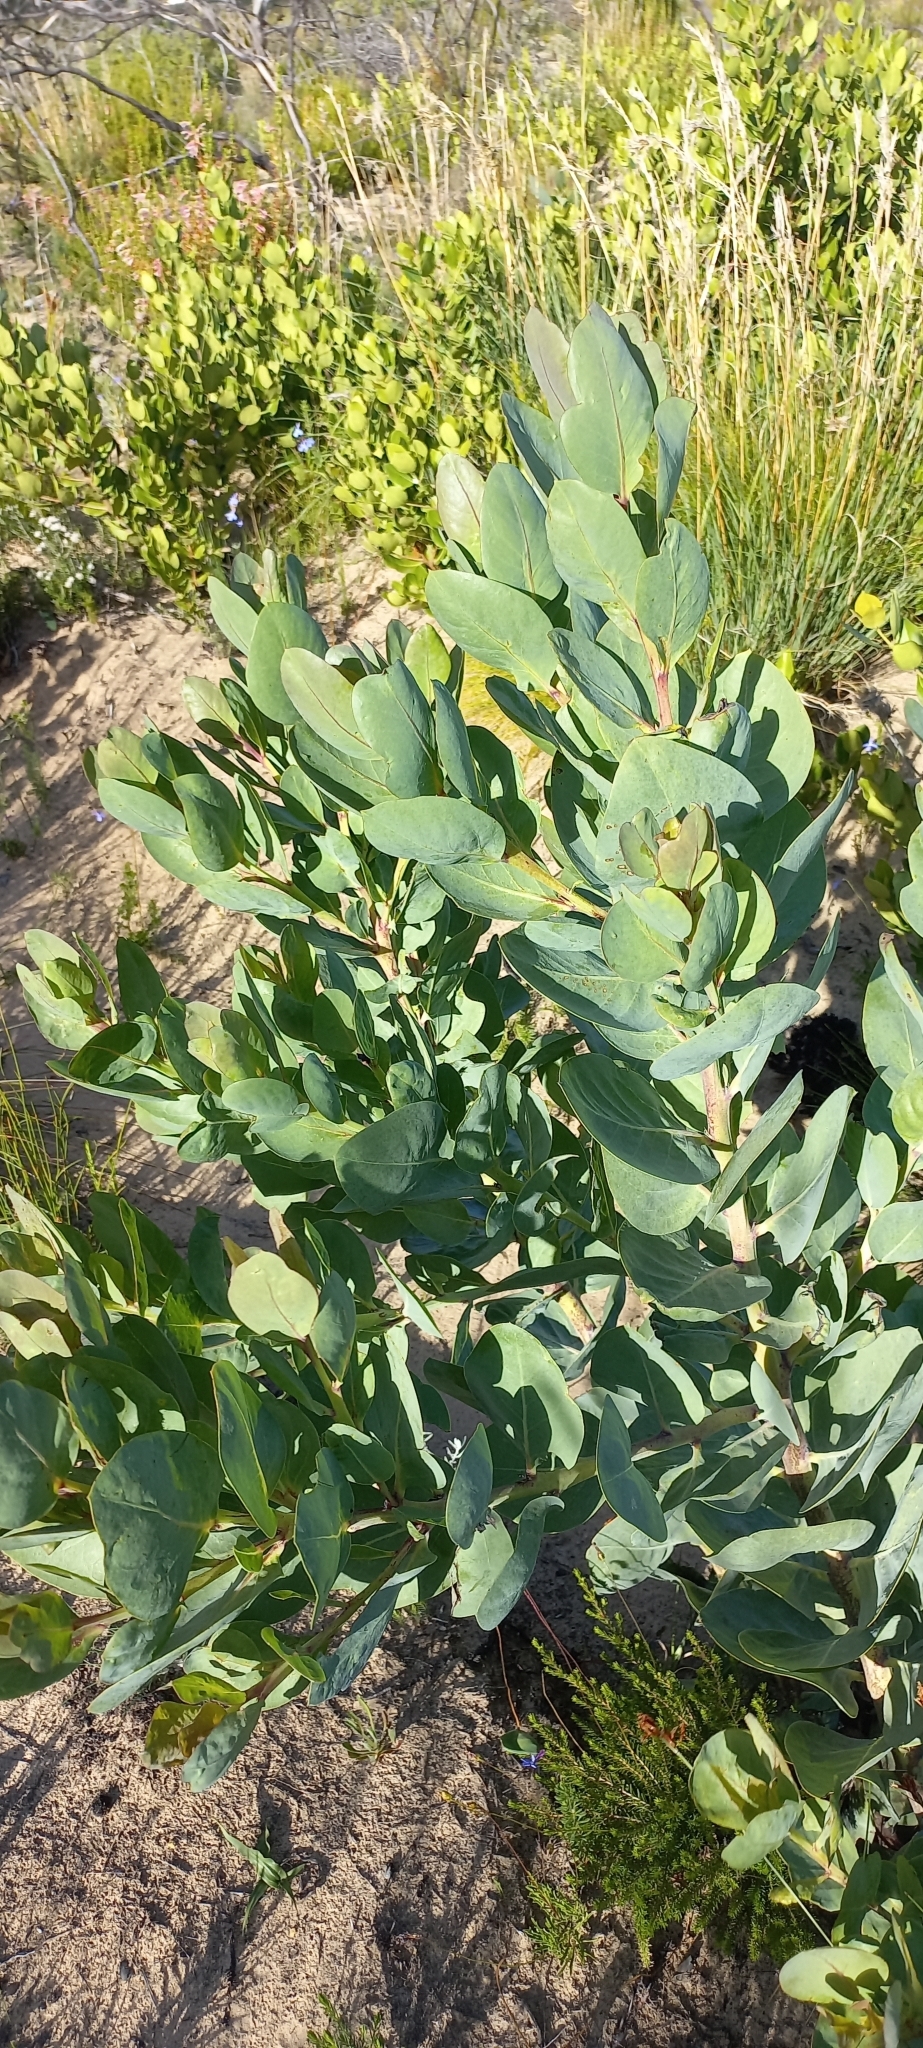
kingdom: Plantae
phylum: Tracheophyta
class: Magnoliopsida
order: Fabales
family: Fabaceae
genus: Rafnia
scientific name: Rafnia triflora
